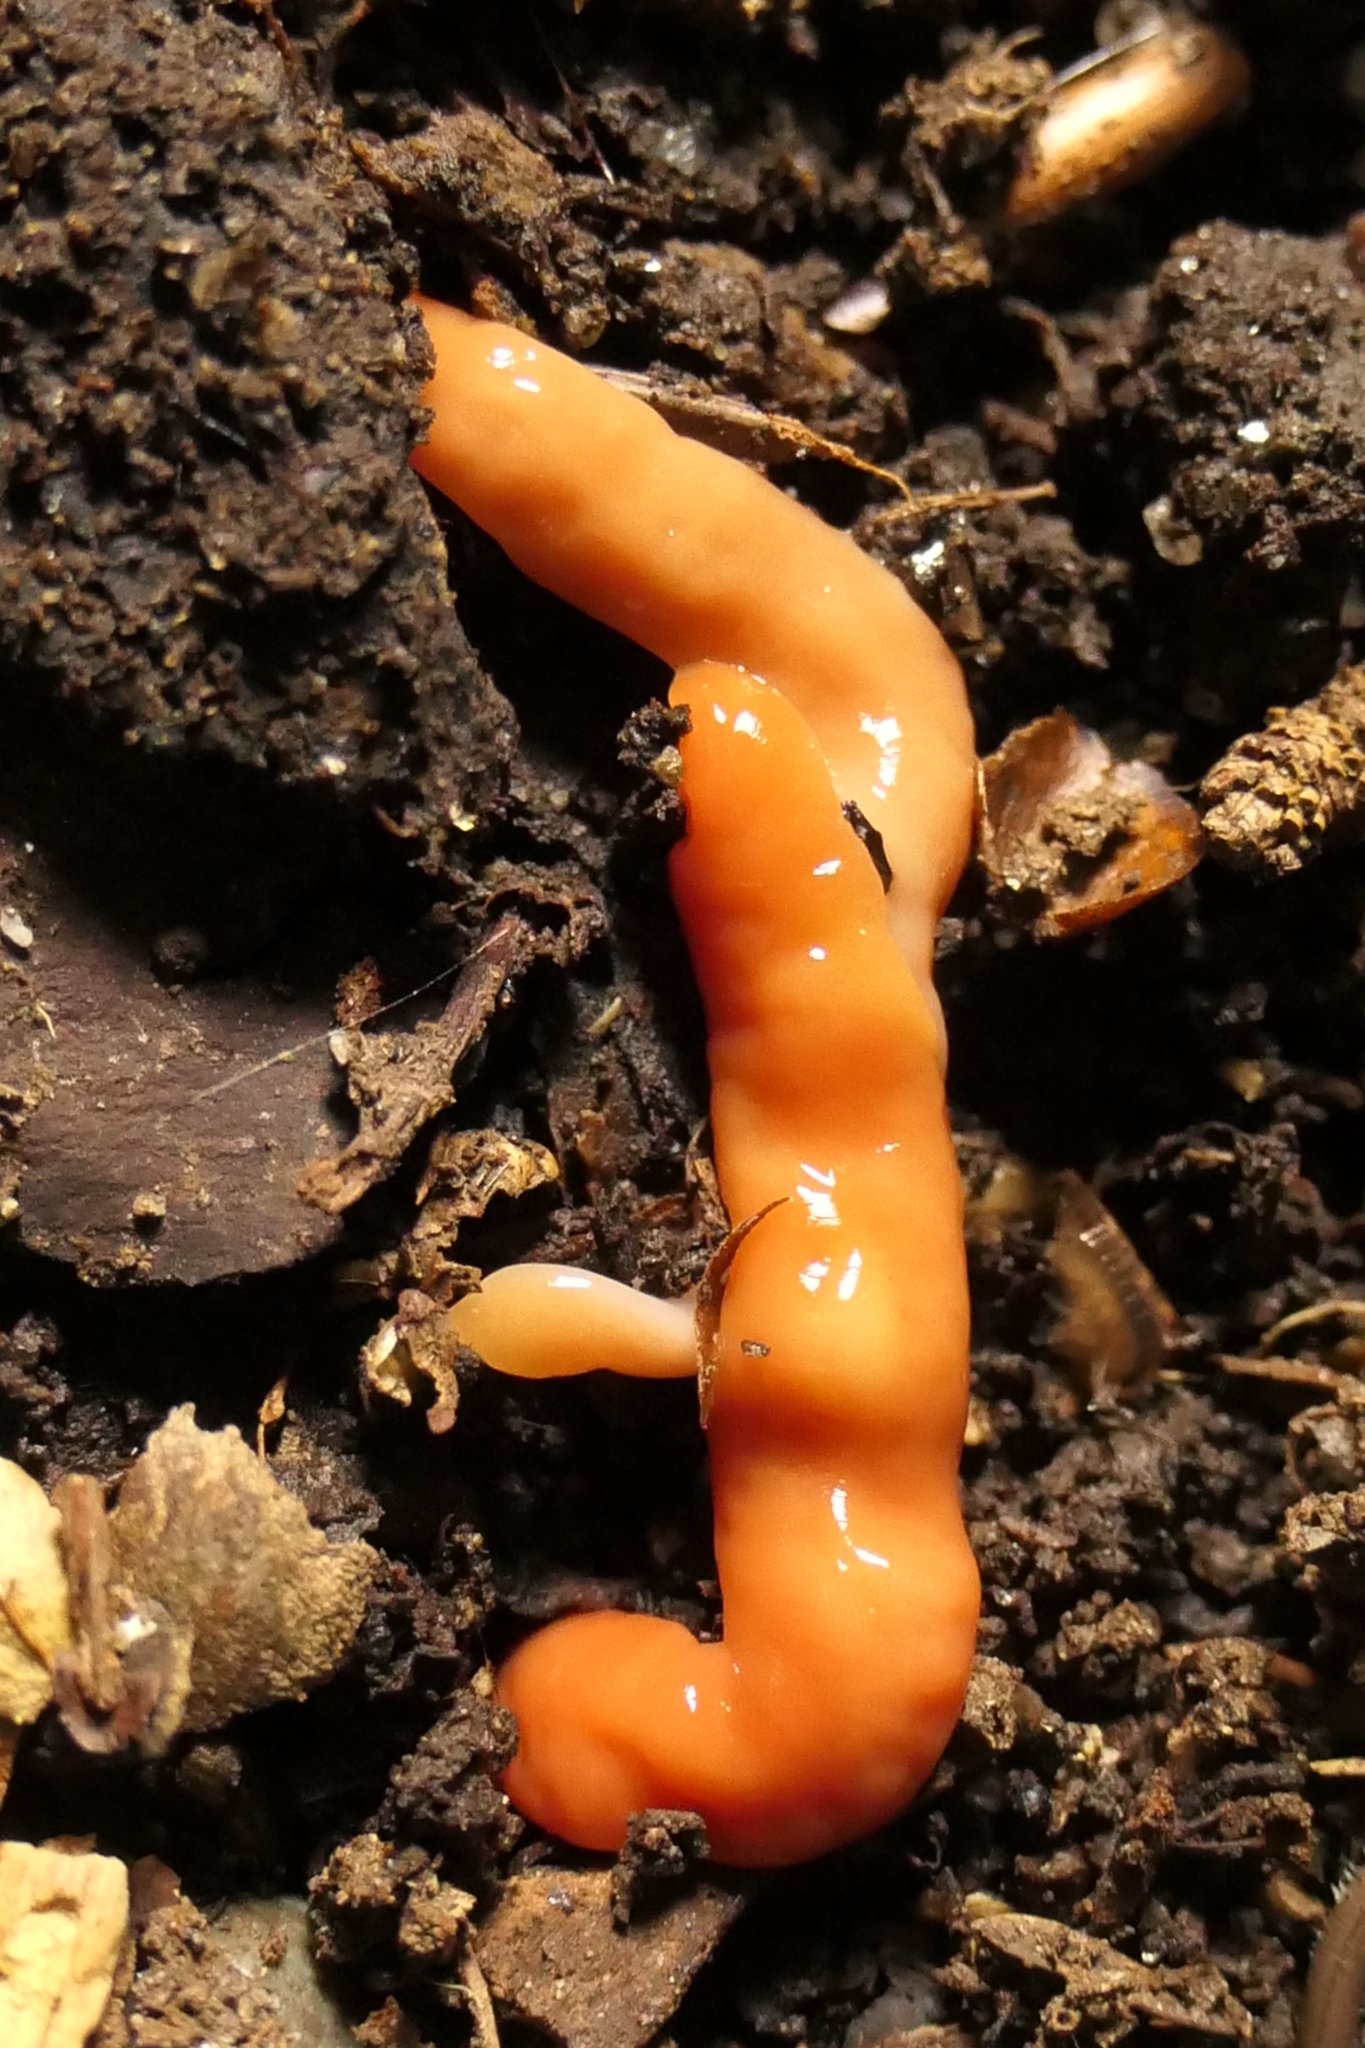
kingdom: Animalia
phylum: Platyhelminthes
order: Tricladida
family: Geoplanidae
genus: Australoplana
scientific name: Australoplana sanguinea
